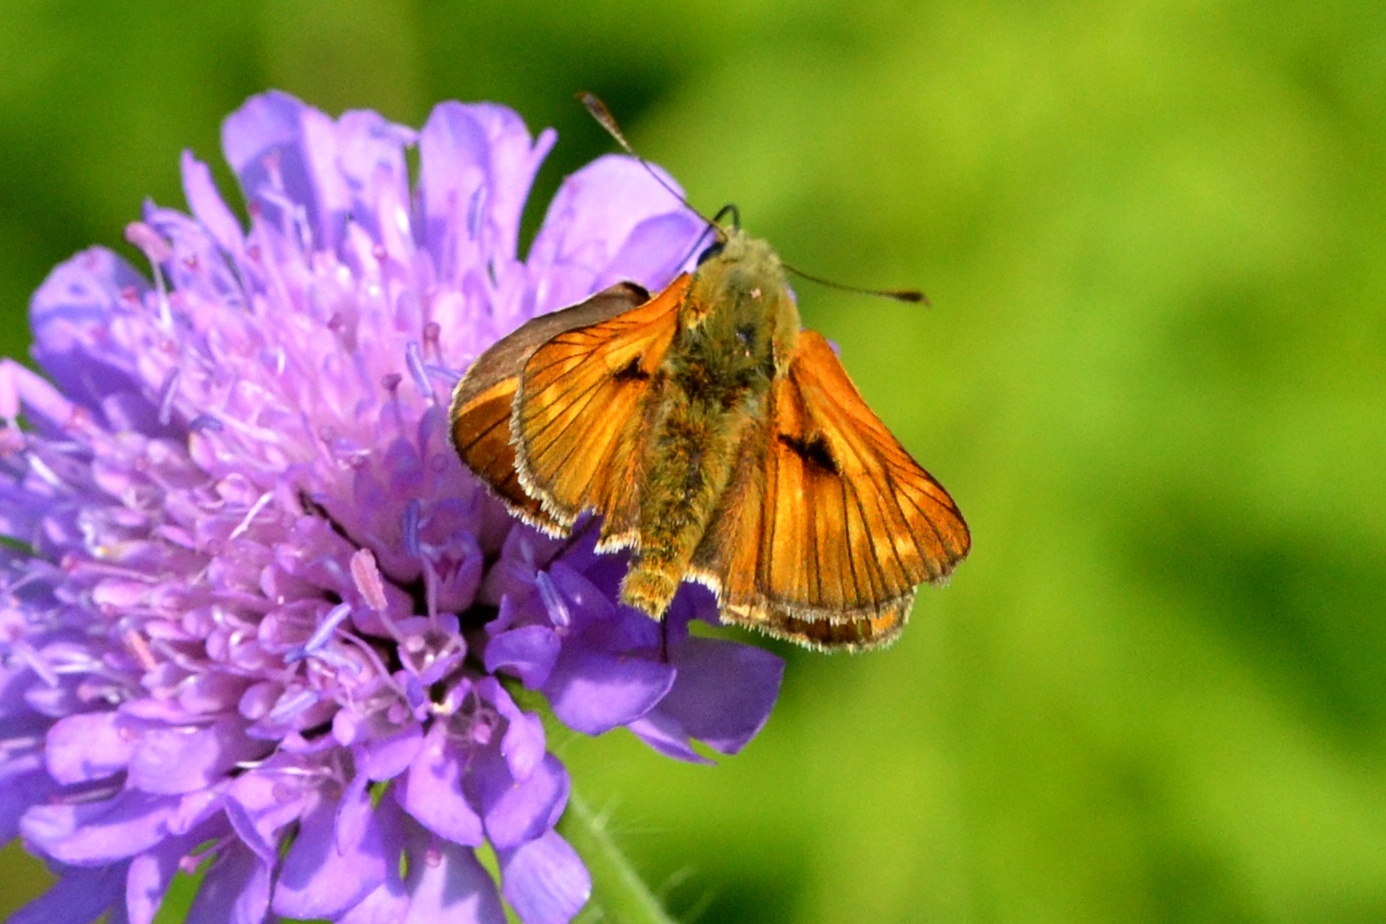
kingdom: Animalia
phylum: Arthropoda
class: Insecta
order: Lepidoptera
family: Hesperiidae
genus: Ochlodes
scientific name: Ochlodes venata
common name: Large skipper
